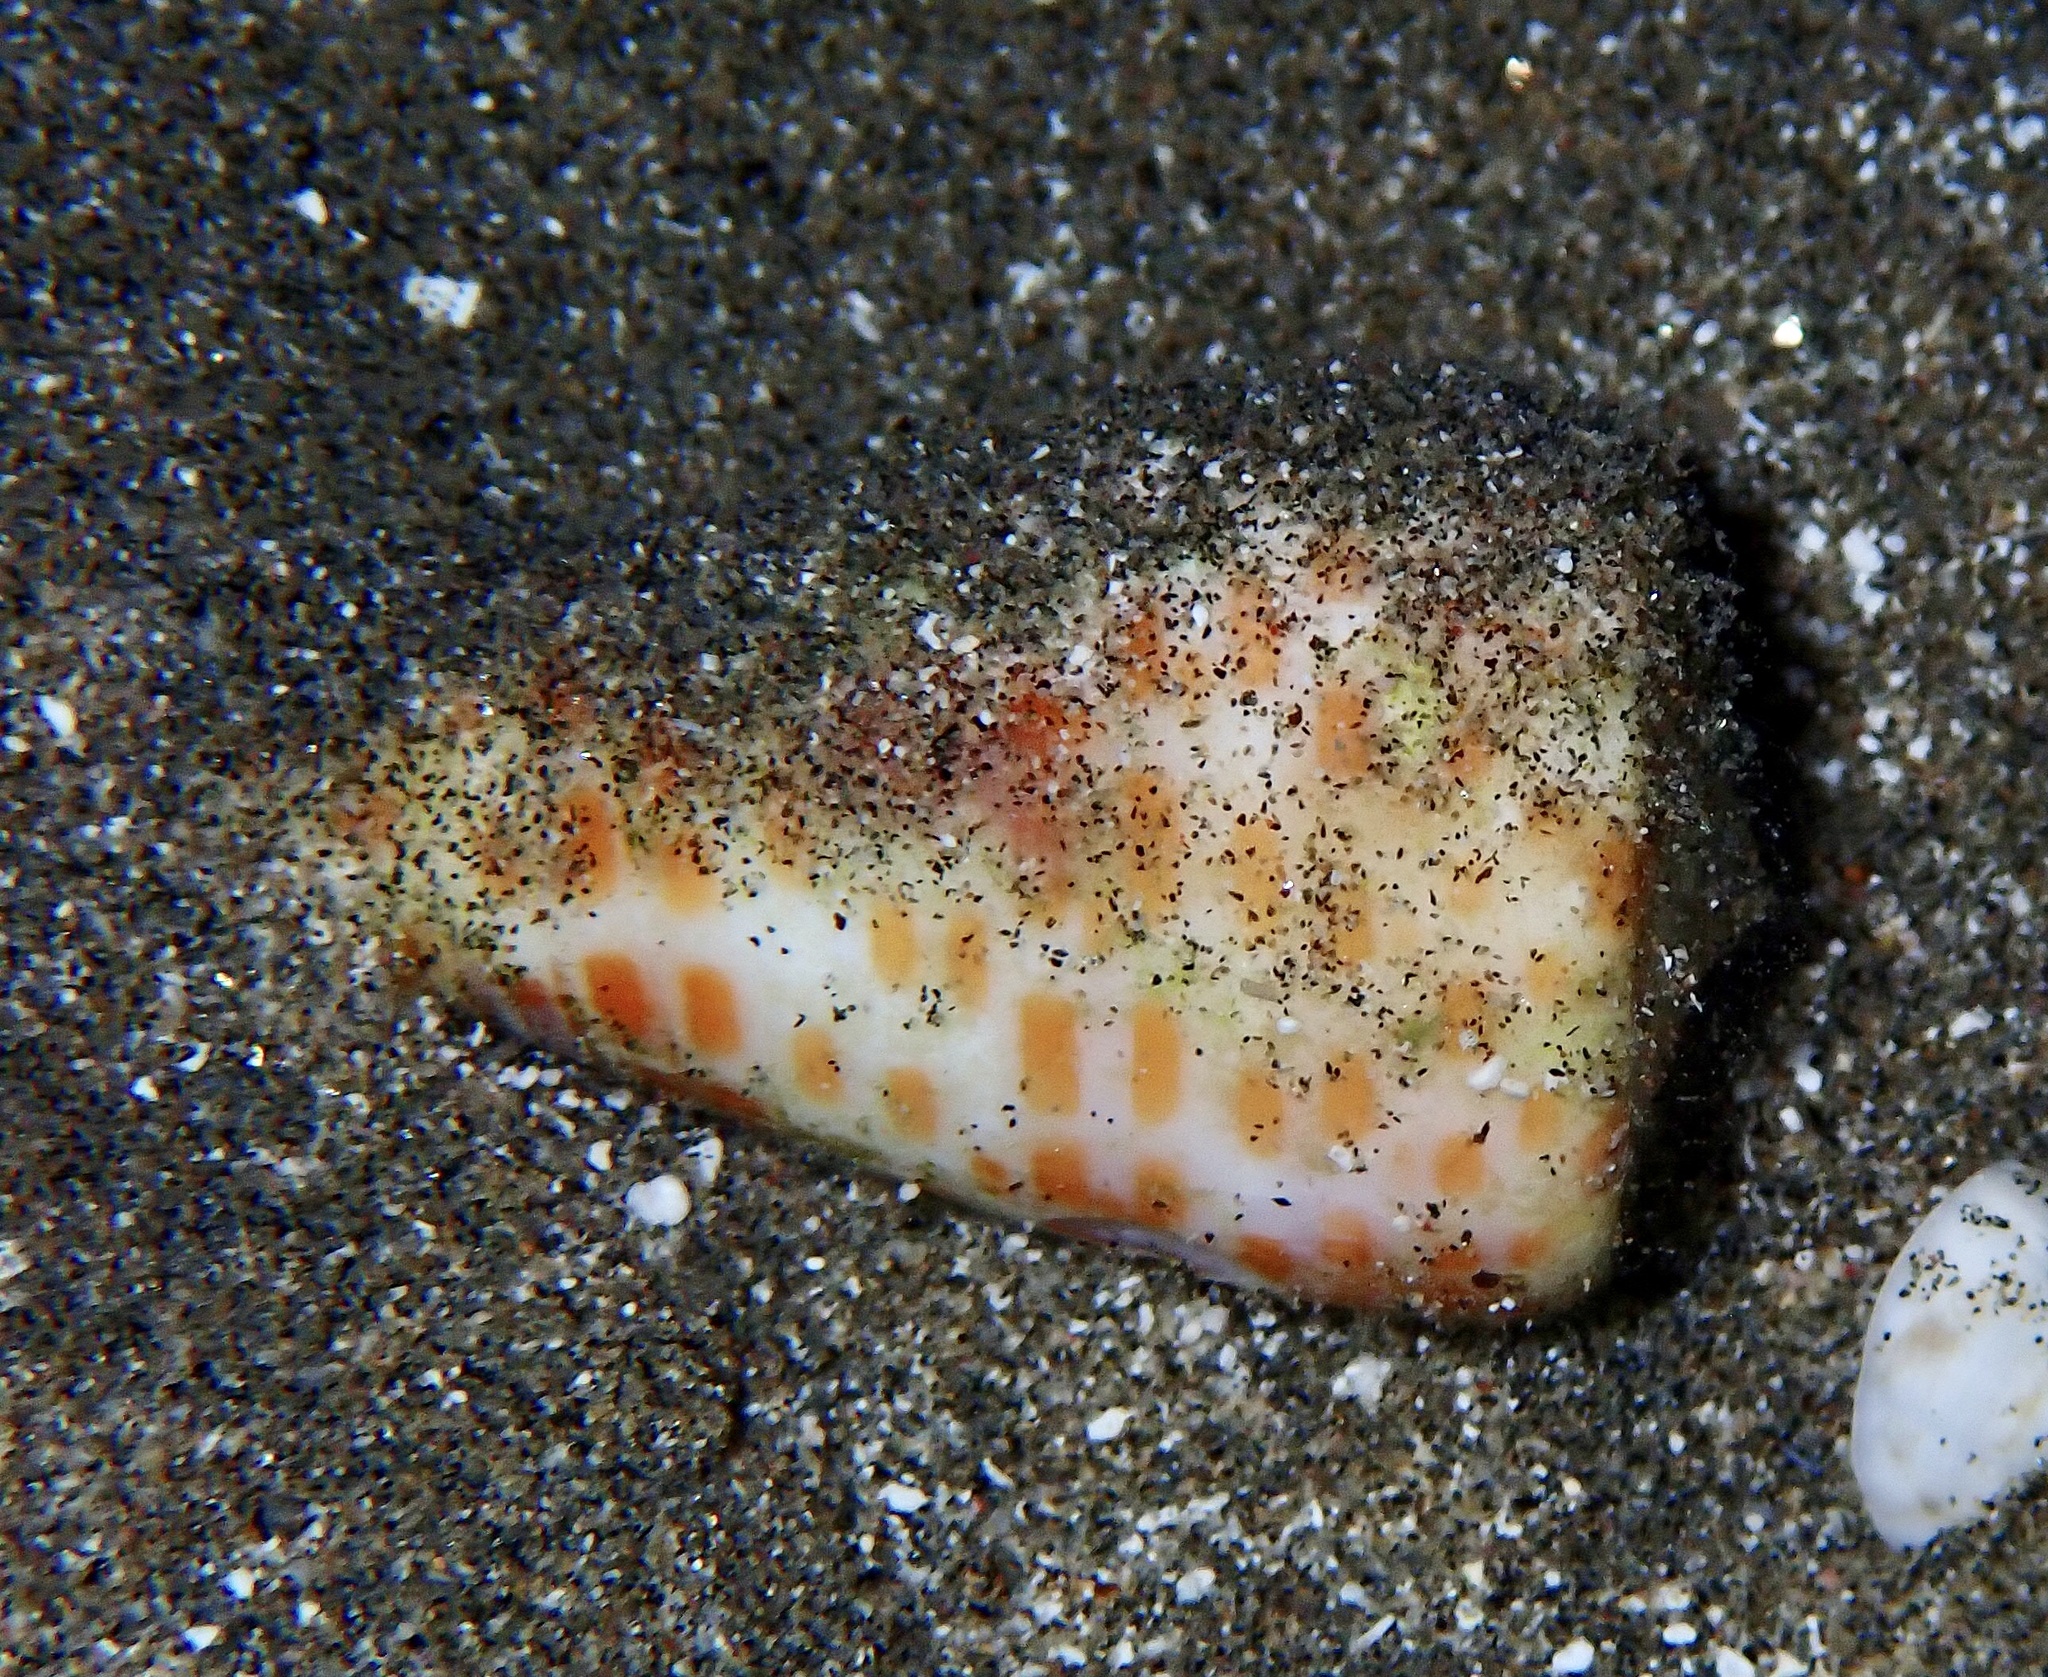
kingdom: Animalia
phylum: Mollusca
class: Gastropoda
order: Neogastropoda
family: Conidae
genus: Conus
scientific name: Conus tessulatus
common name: Tessellate cone
